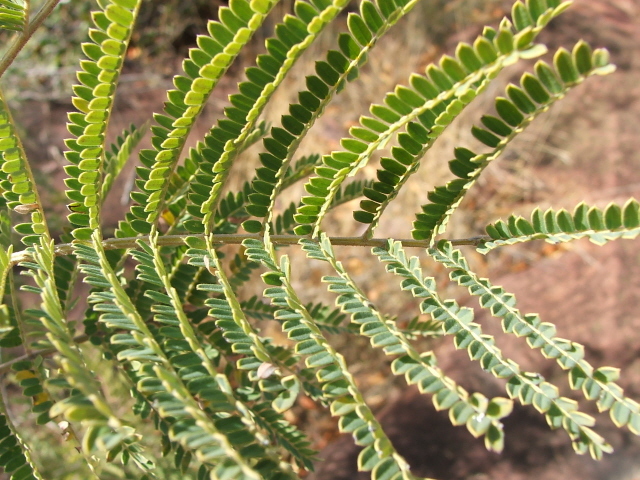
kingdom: Plantae
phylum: Tracheophyta
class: Magnoliopsida
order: Fabales
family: Fabaceae
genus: Peltophorum
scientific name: Peltophorum africanum
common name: African black wattle
